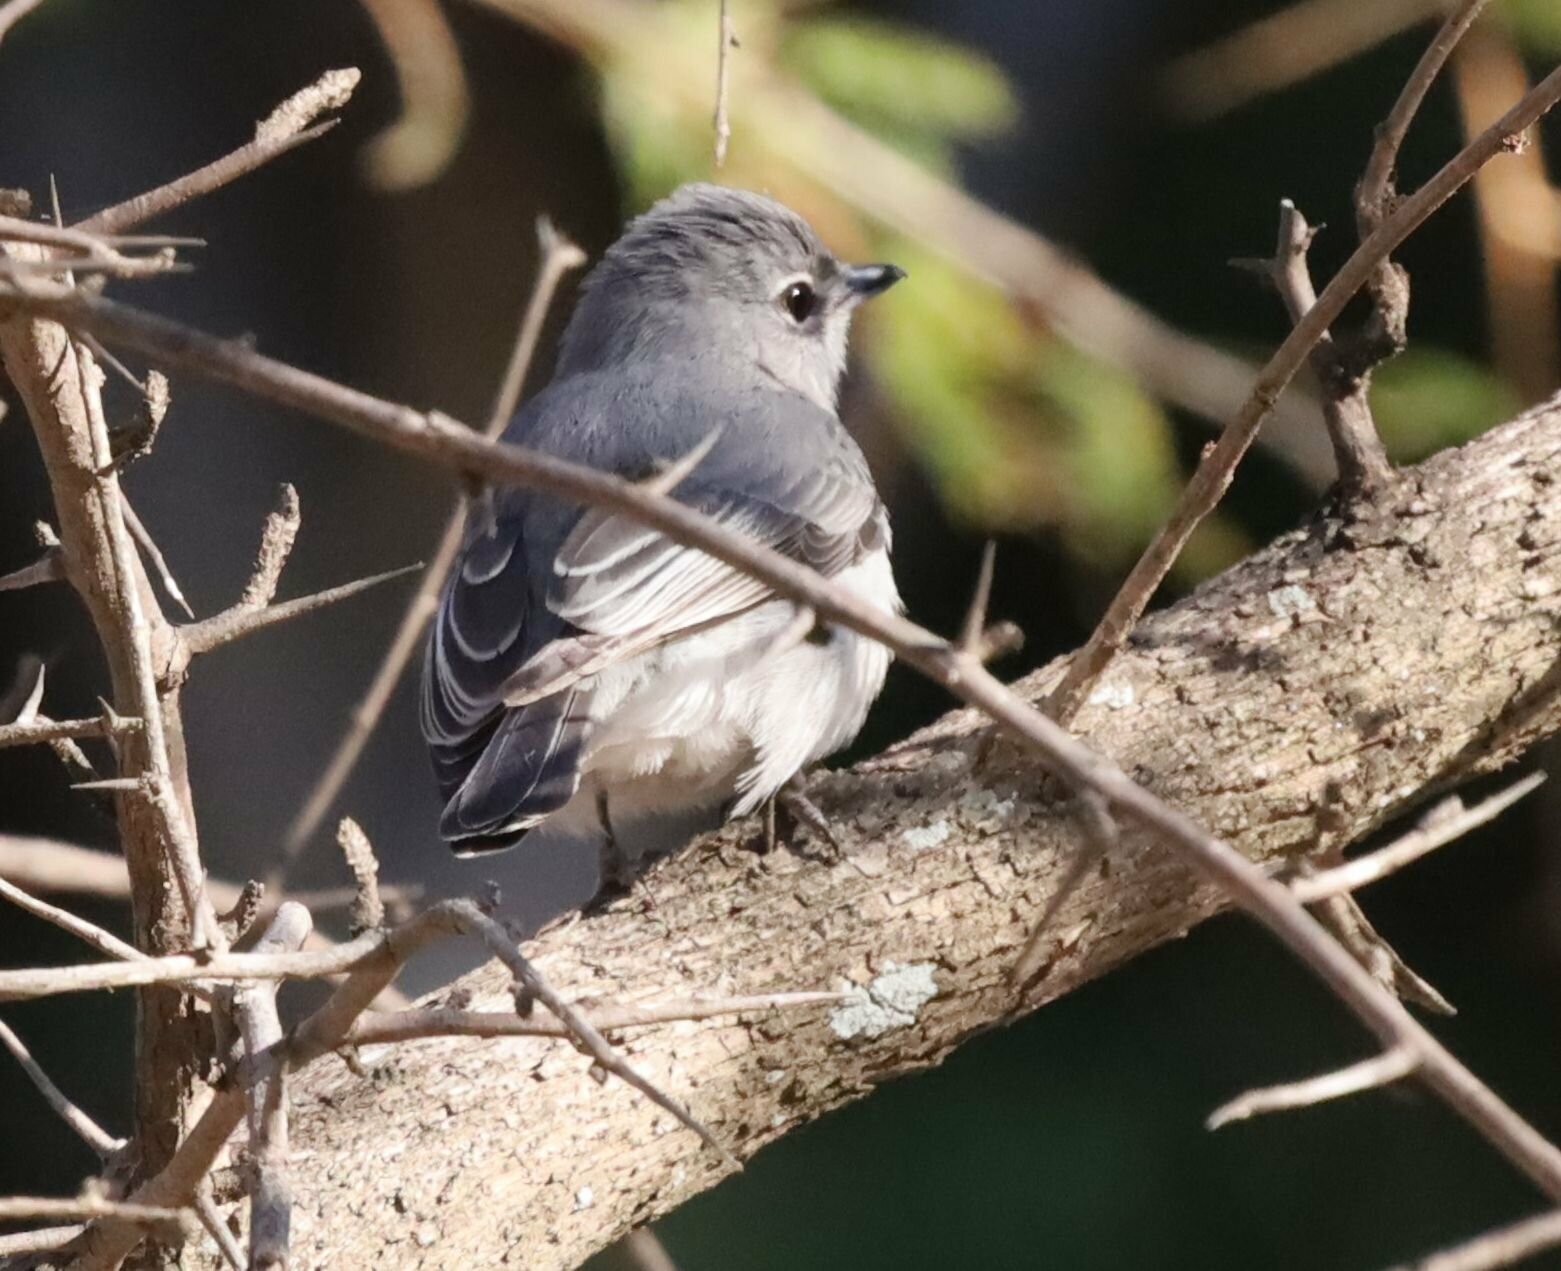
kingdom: Animalia
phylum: Chordata
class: Aves
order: Passeriformes
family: Muscicapidae
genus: Muscicapa
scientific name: Muscicapa caerulescens
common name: Ashy flycatcher
